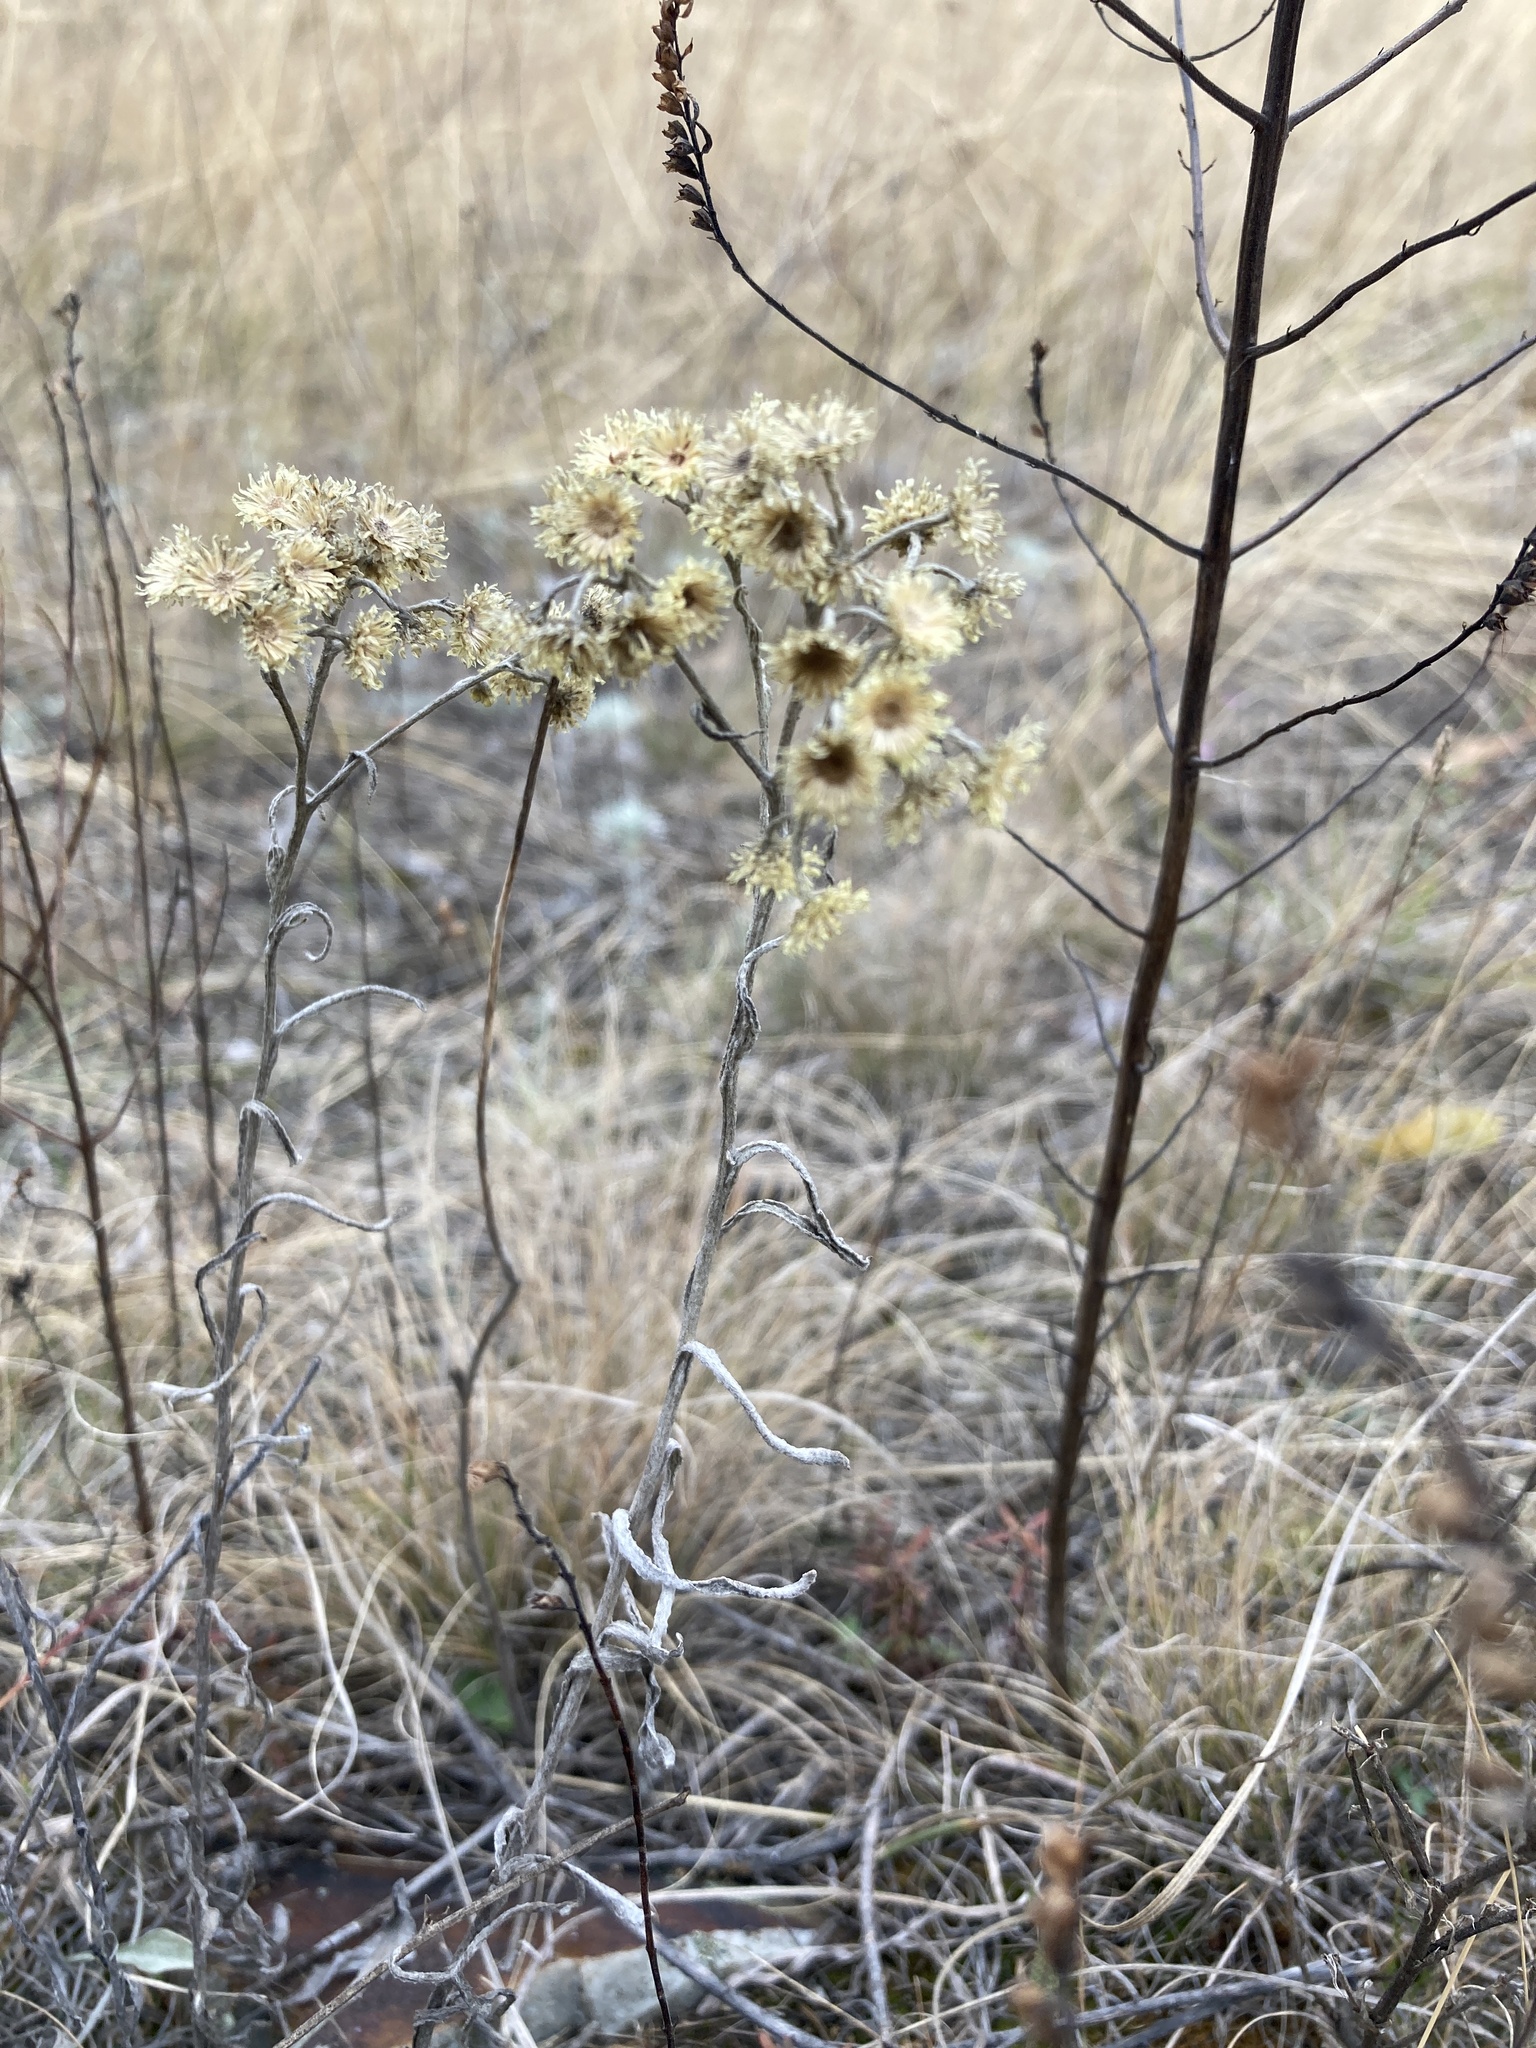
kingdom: Plantae
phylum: Tracheophyta
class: Magnoliopsida
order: Asterales
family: Asteraceae
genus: Helichrysum
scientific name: Helichrysum arenarium
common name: Strawflower
